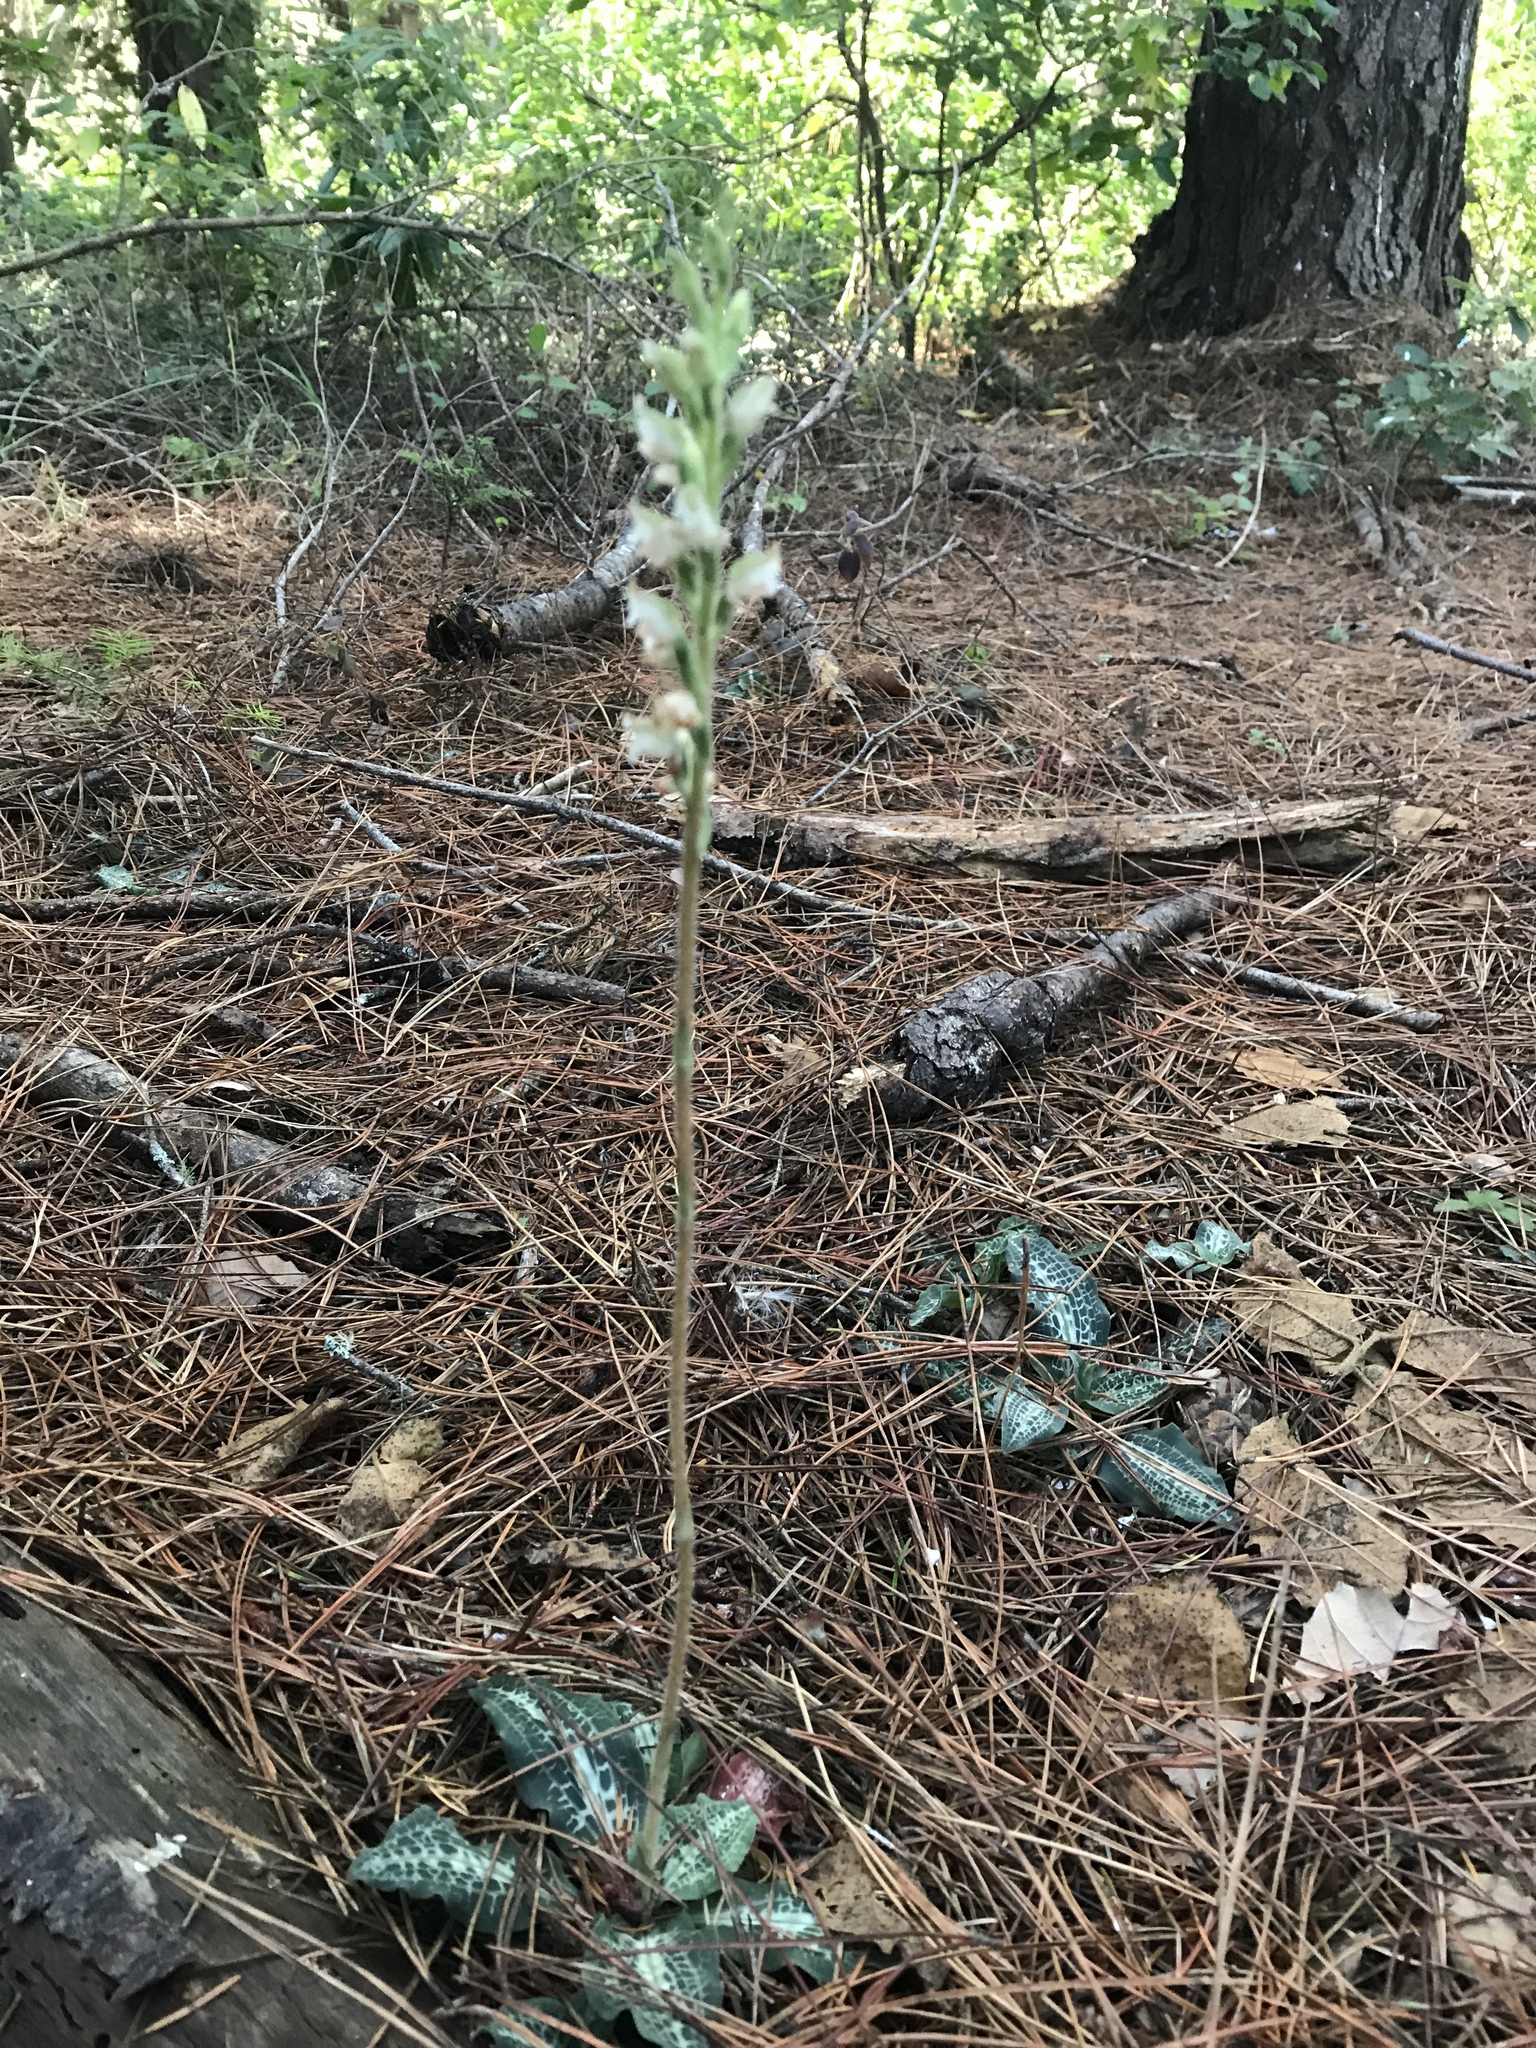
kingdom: Plantae
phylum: Tracheophyta
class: Liliopsida
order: Asparagales
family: Orchidaceae
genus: Goodyera
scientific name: Goodyera oblongifolia
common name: Giant rattlesnake-plantain
